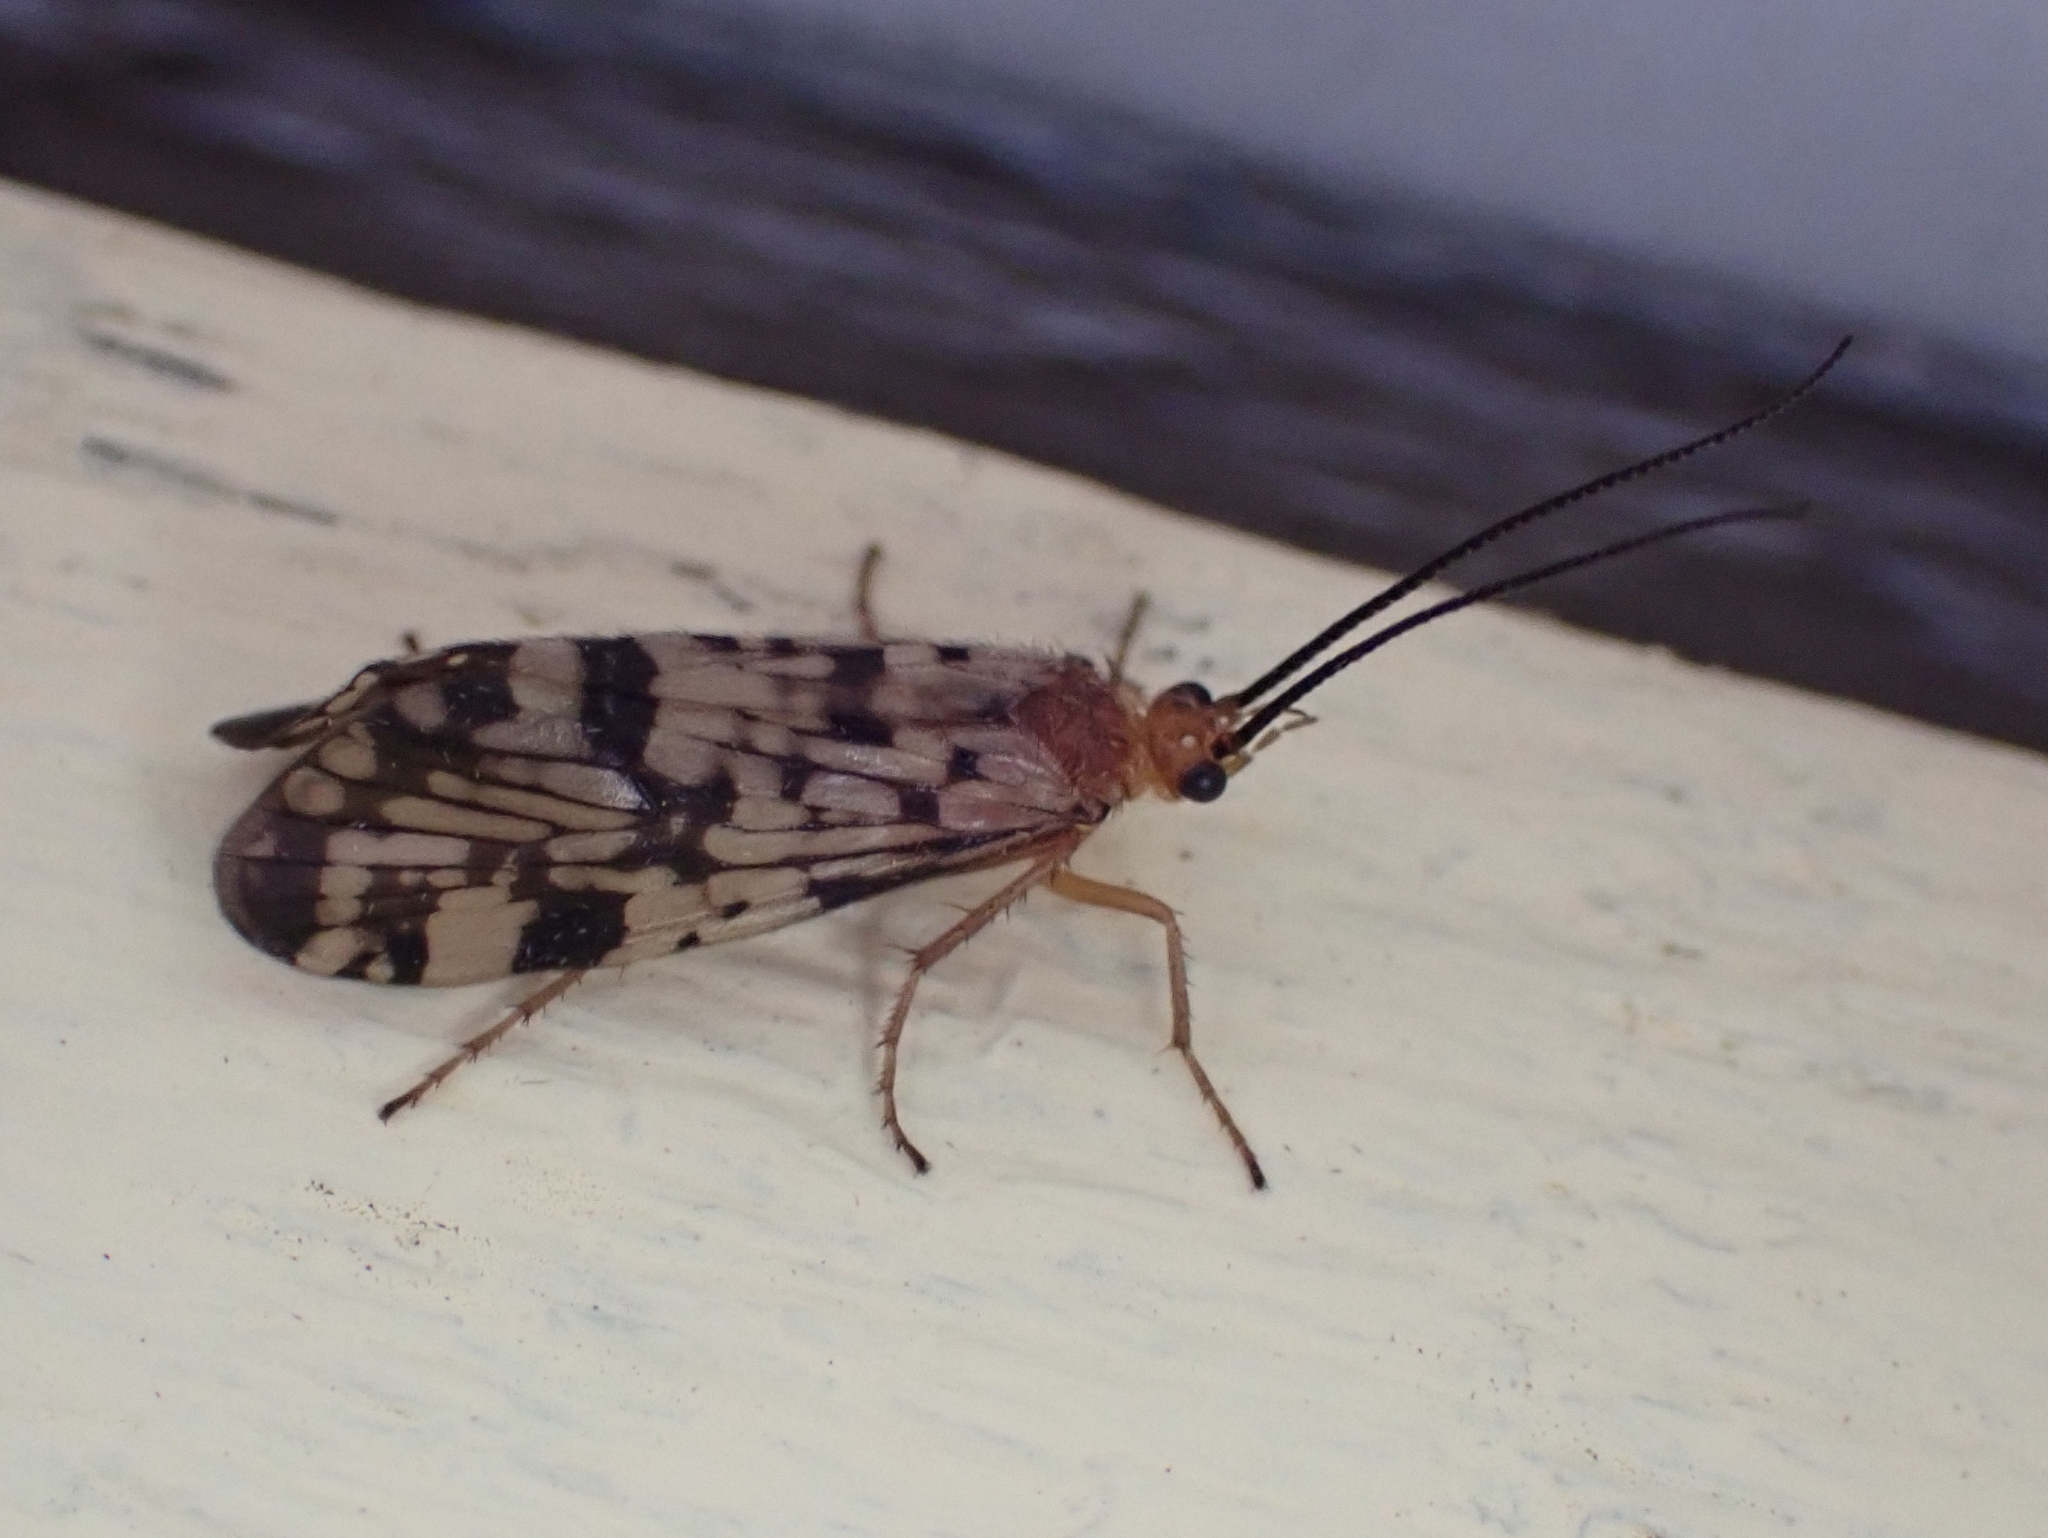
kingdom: Animalia
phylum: Arthropoda
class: Insecta
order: Trichoptera
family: Phryganeidae
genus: Banksiola
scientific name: Banksiola dossuaria
